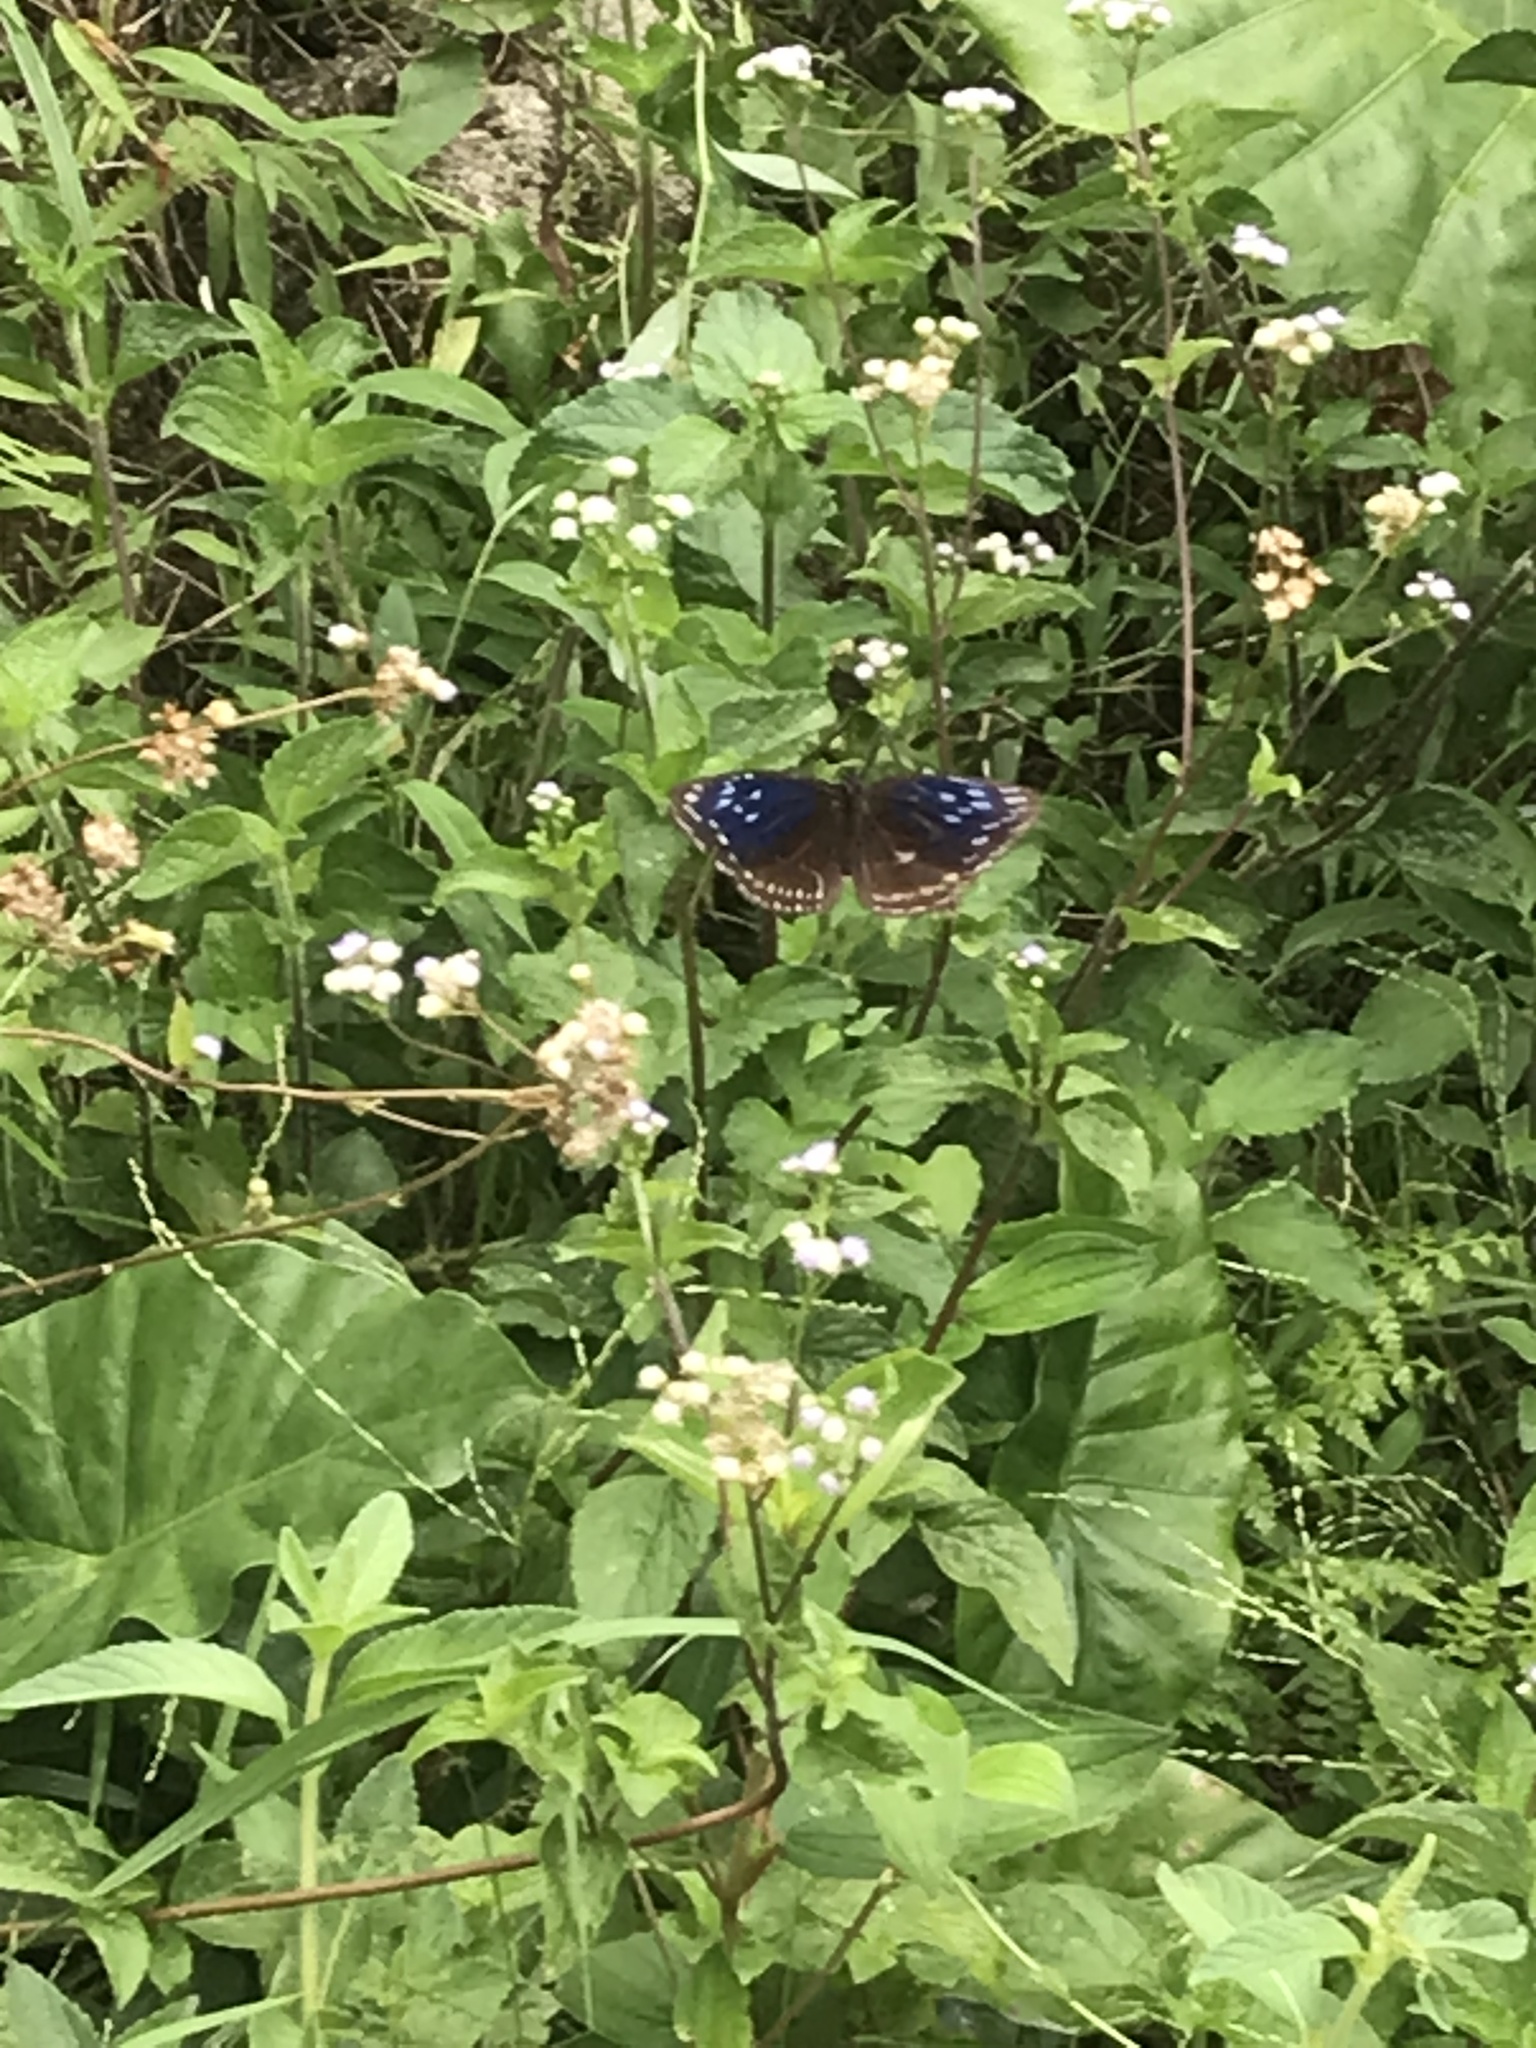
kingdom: Animalia
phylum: Arthropoda
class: Insecta
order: Lepidoptera
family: Nymphalidae
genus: Euploea
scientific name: Euploea midamus
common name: Blue-spotted crow butterfly
